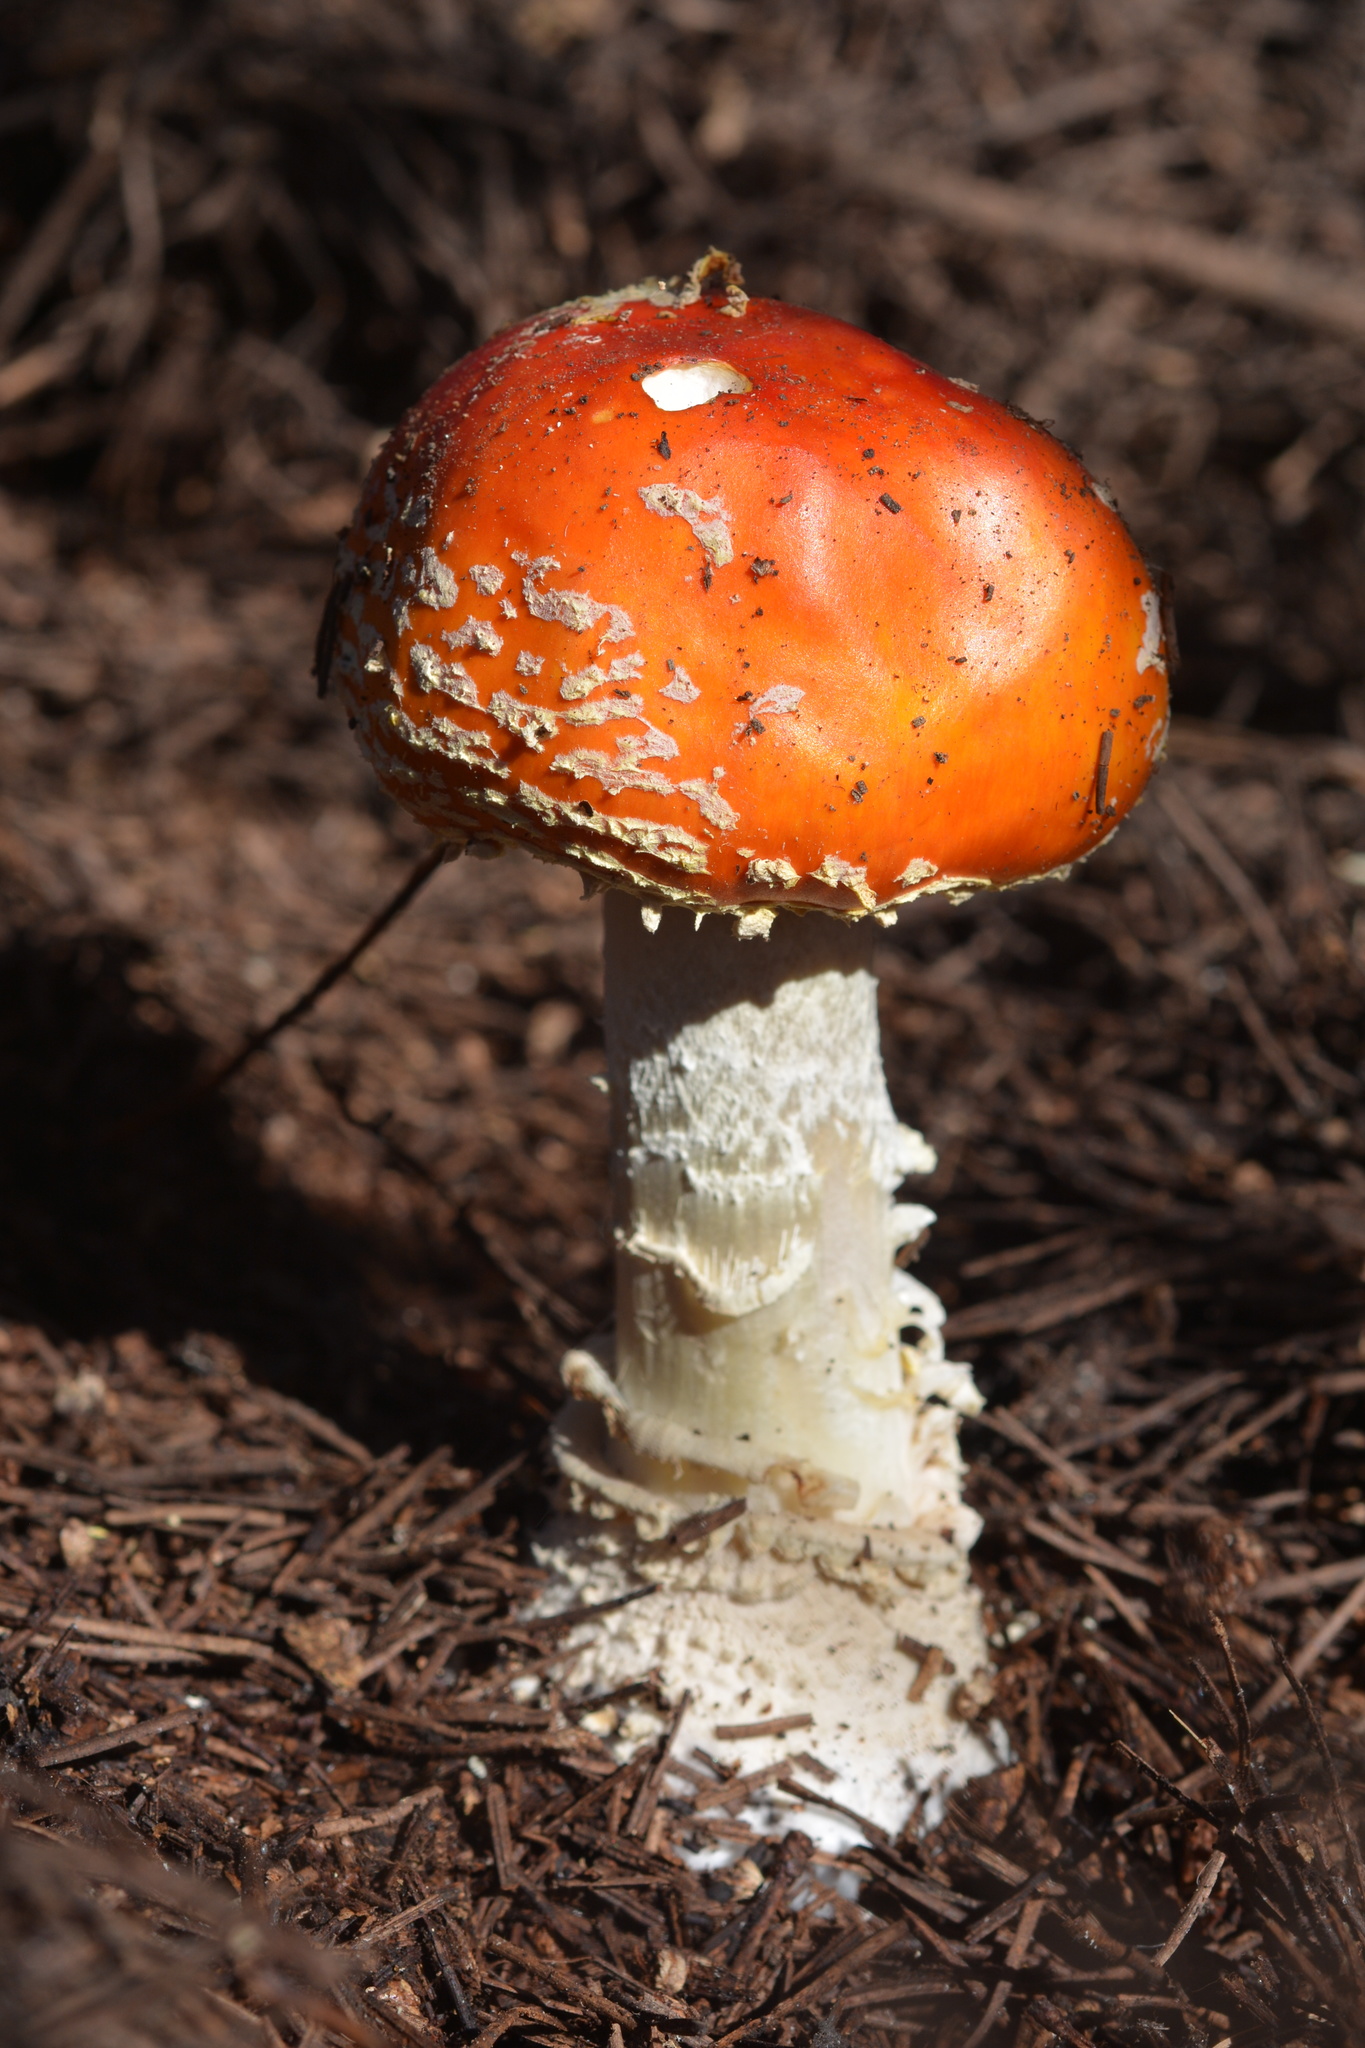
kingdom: Fungi
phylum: Basidiomycota
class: Agaricomycetes
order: Agaricales
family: Amanitaceae
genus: Amanita
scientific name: Amanita muscaria
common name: Fly agaric
